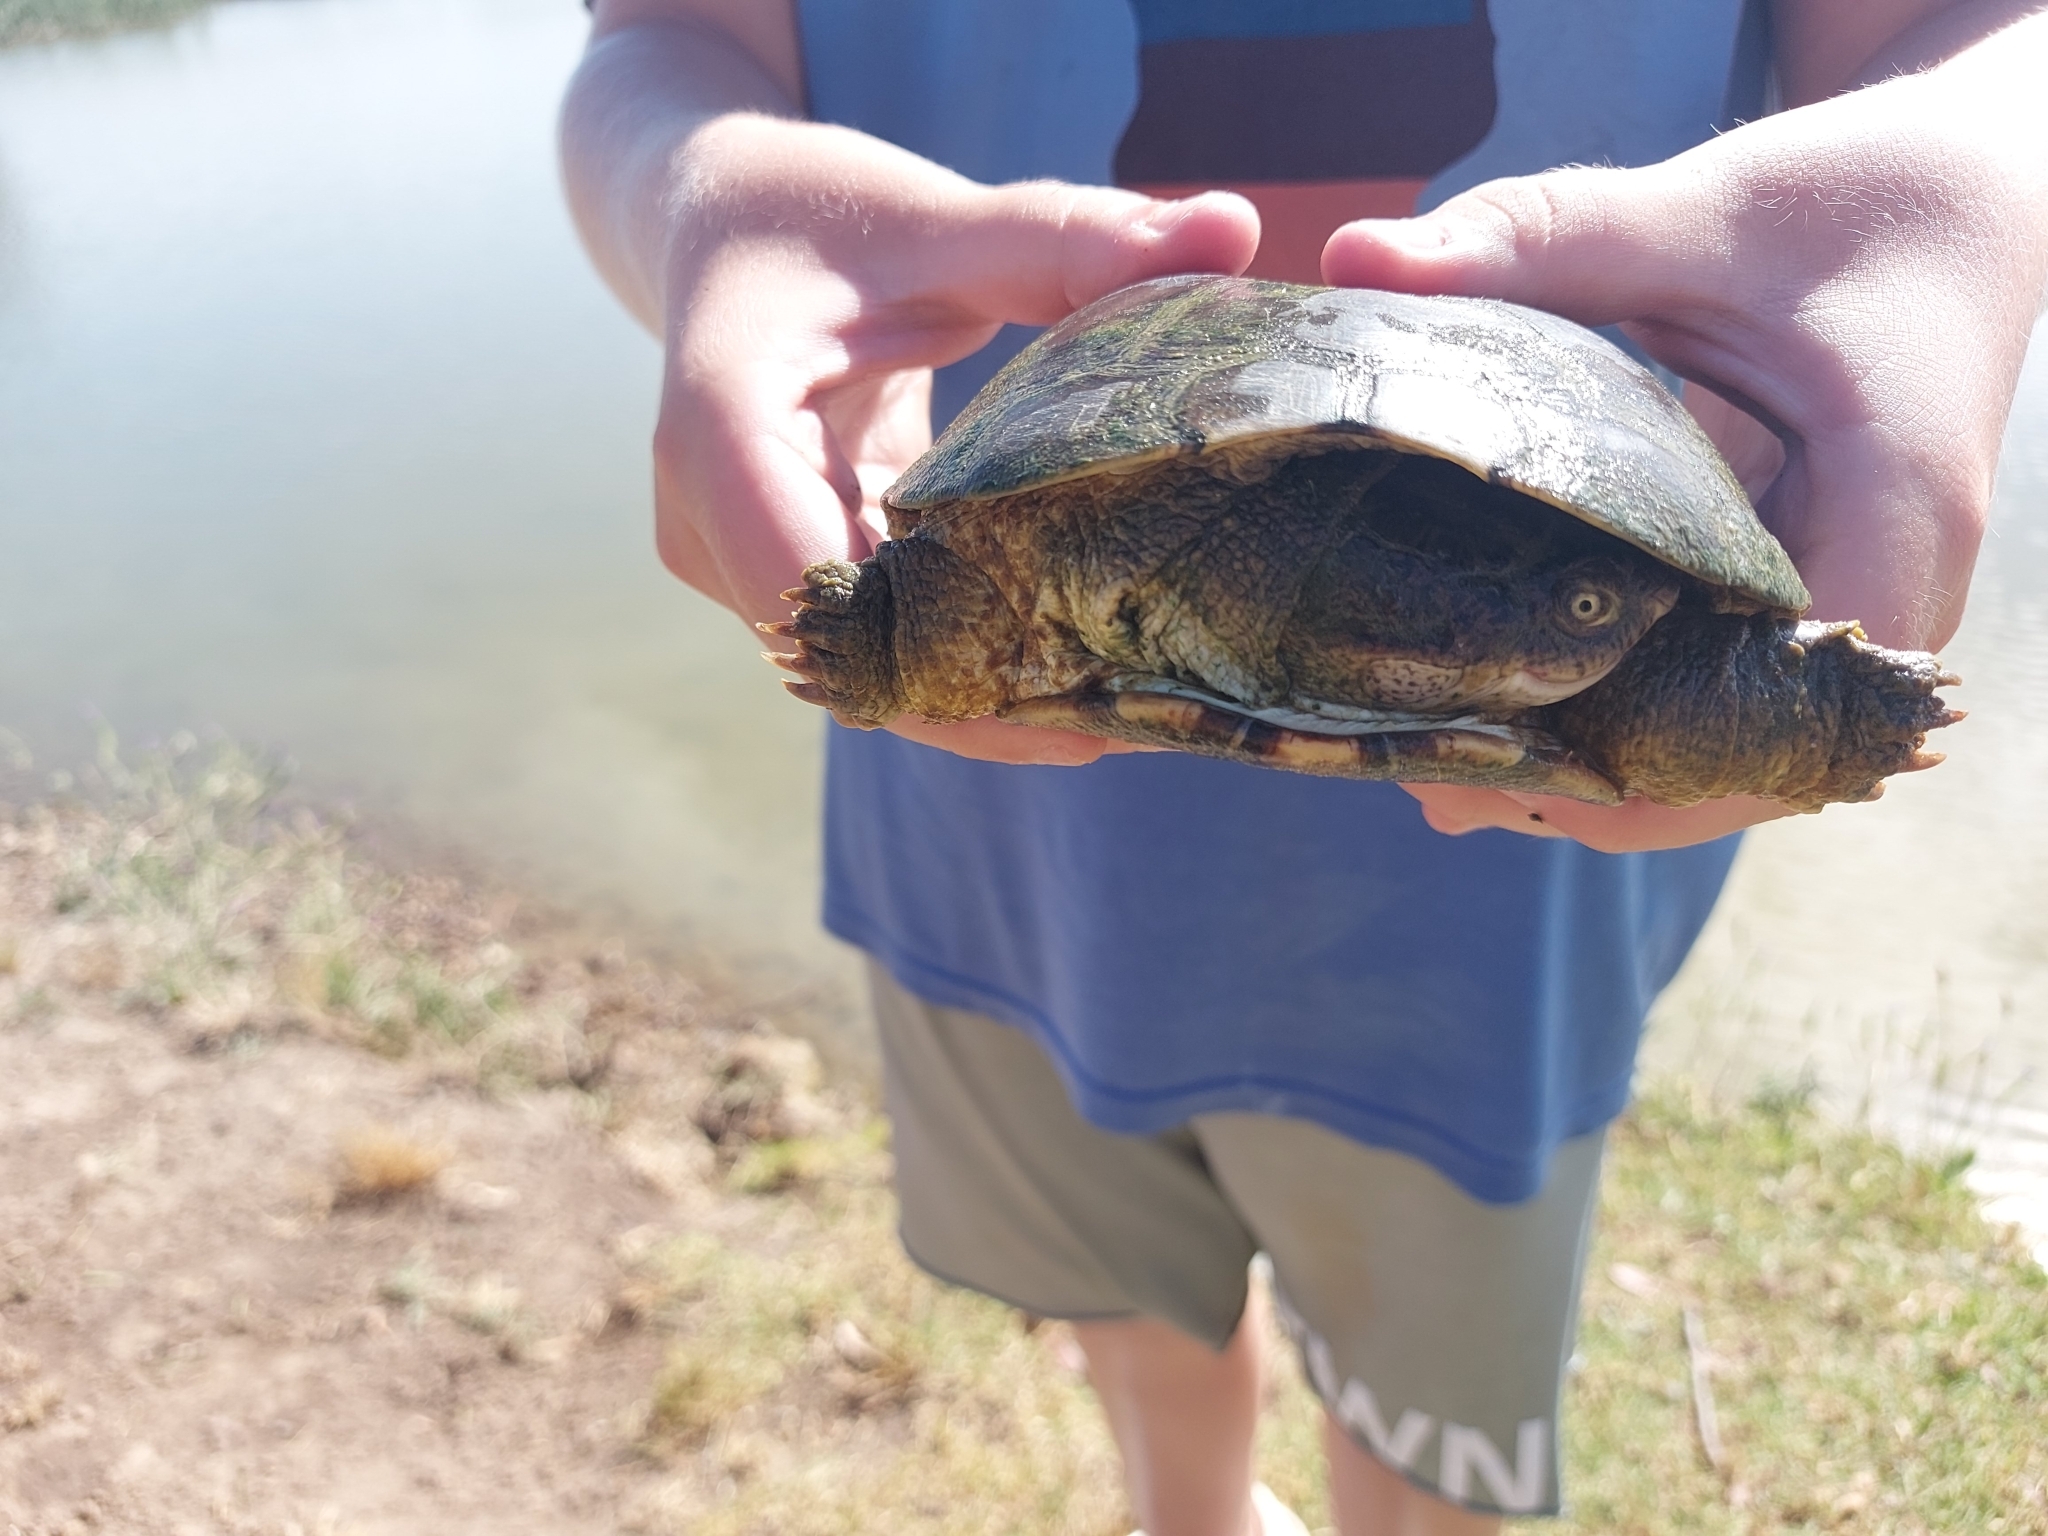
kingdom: Animalia
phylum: Chordata
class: Testudines
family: Pelomedusidae
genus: Pelomedusa
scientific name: Pelomedusa galeata
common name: South african helmeted terrapin
